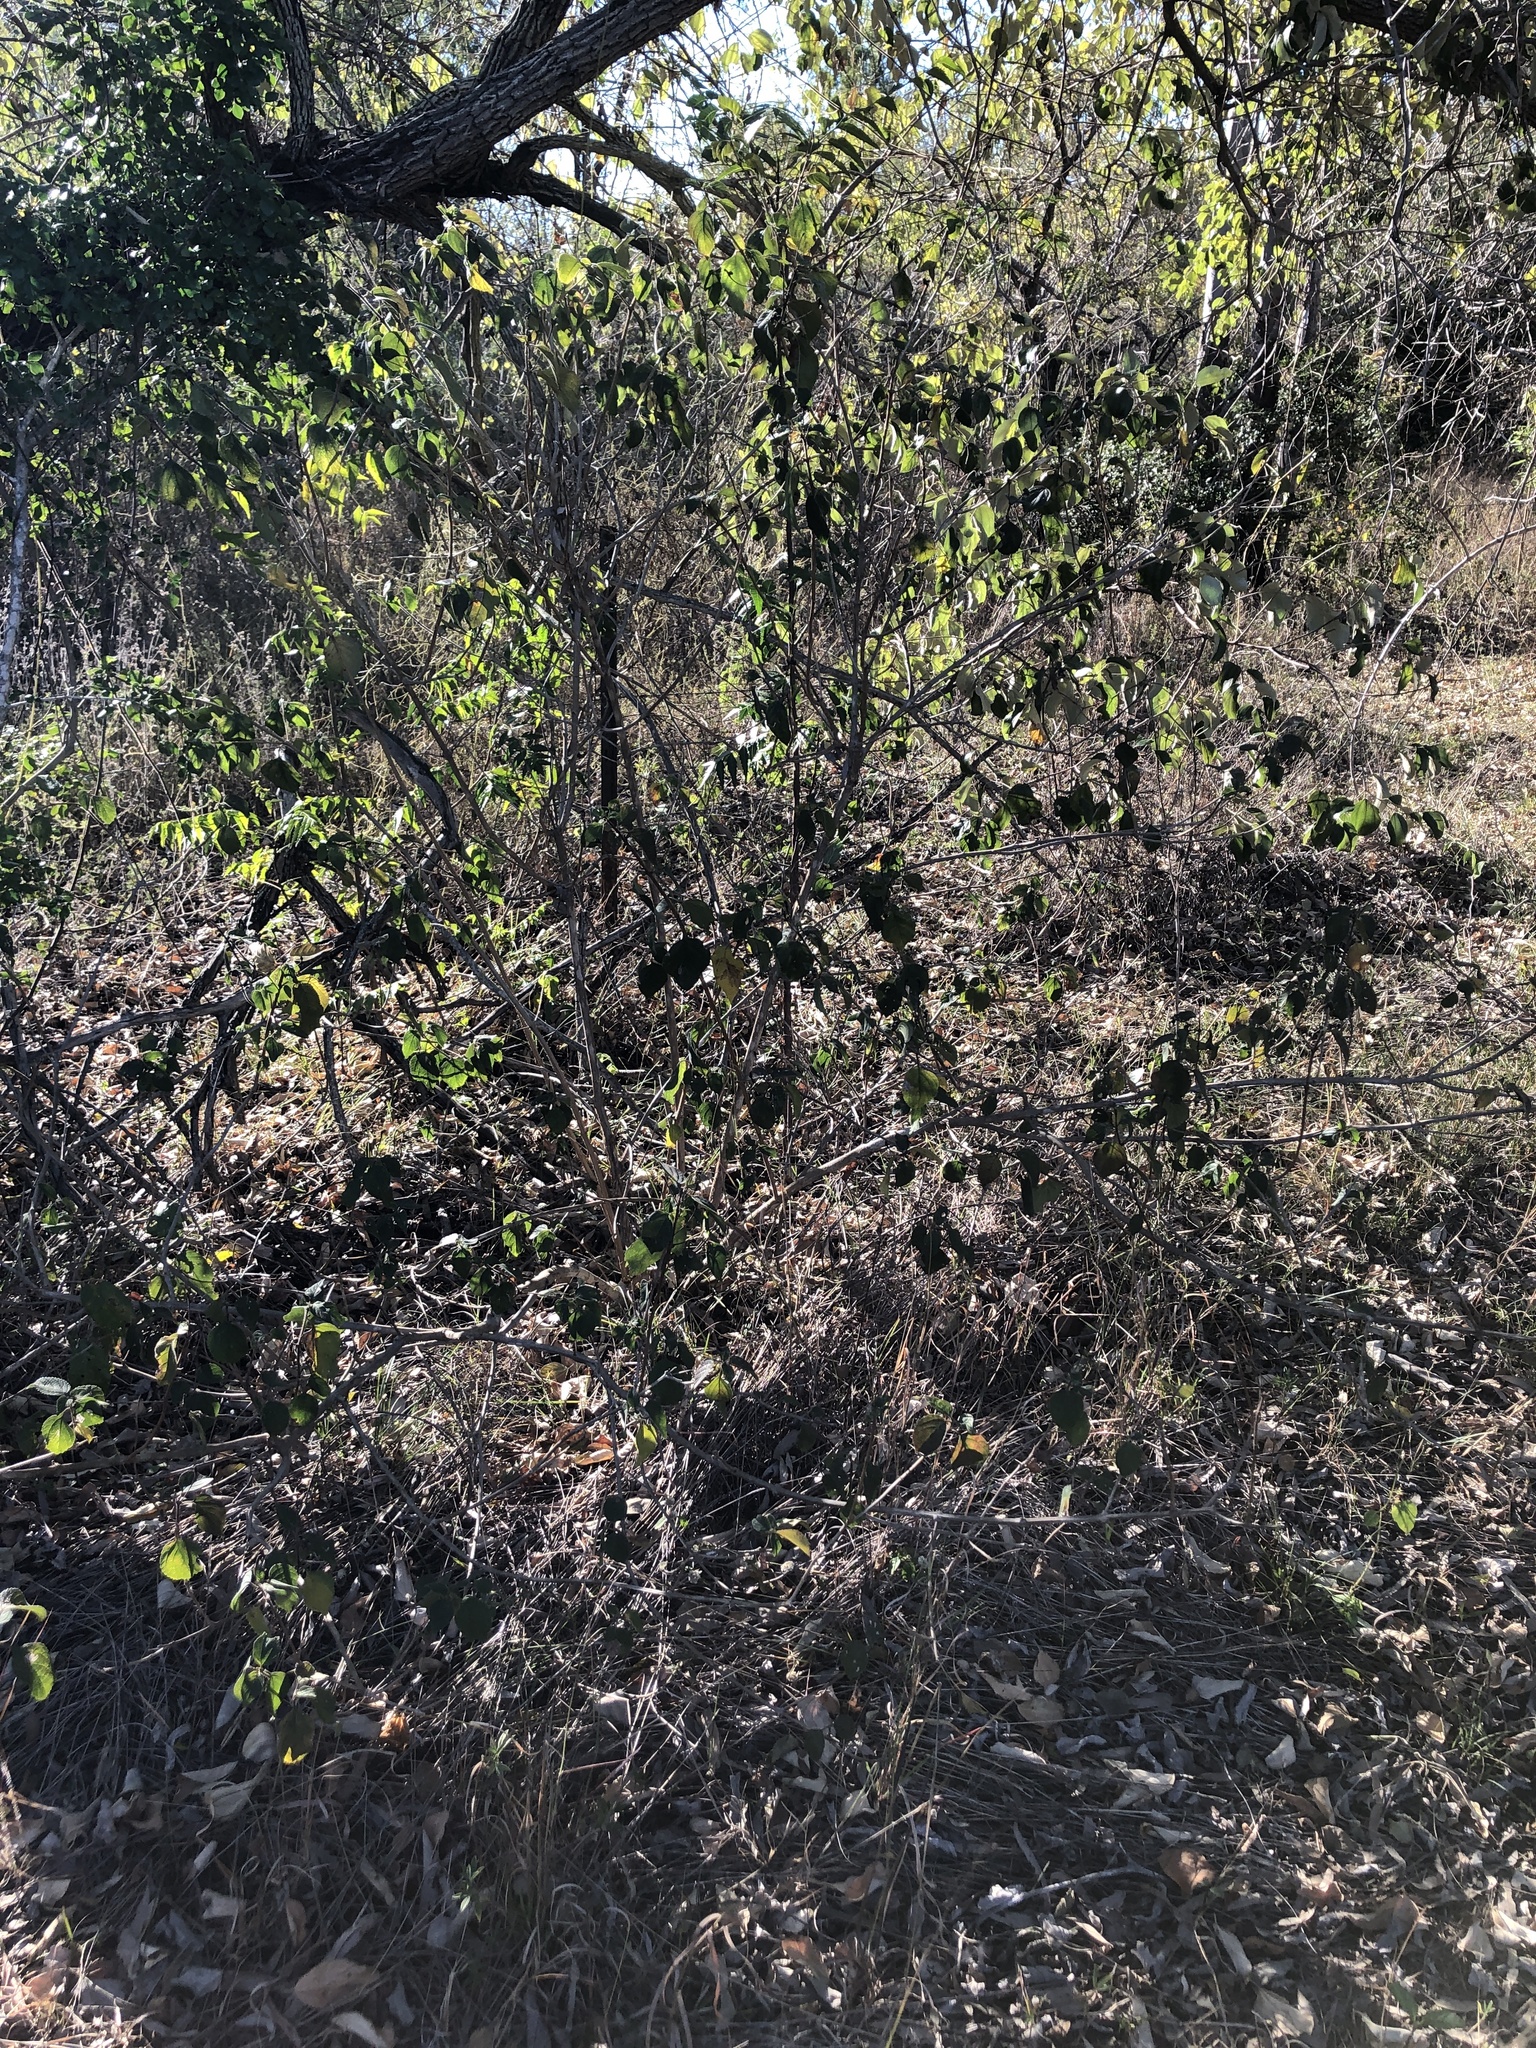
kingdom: Plantae
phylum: Tracheophyta
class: Magnoliopsida
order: Lamiales
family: Verbenaceae
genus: Lantana
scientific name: Lantana camara
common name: Lantana
